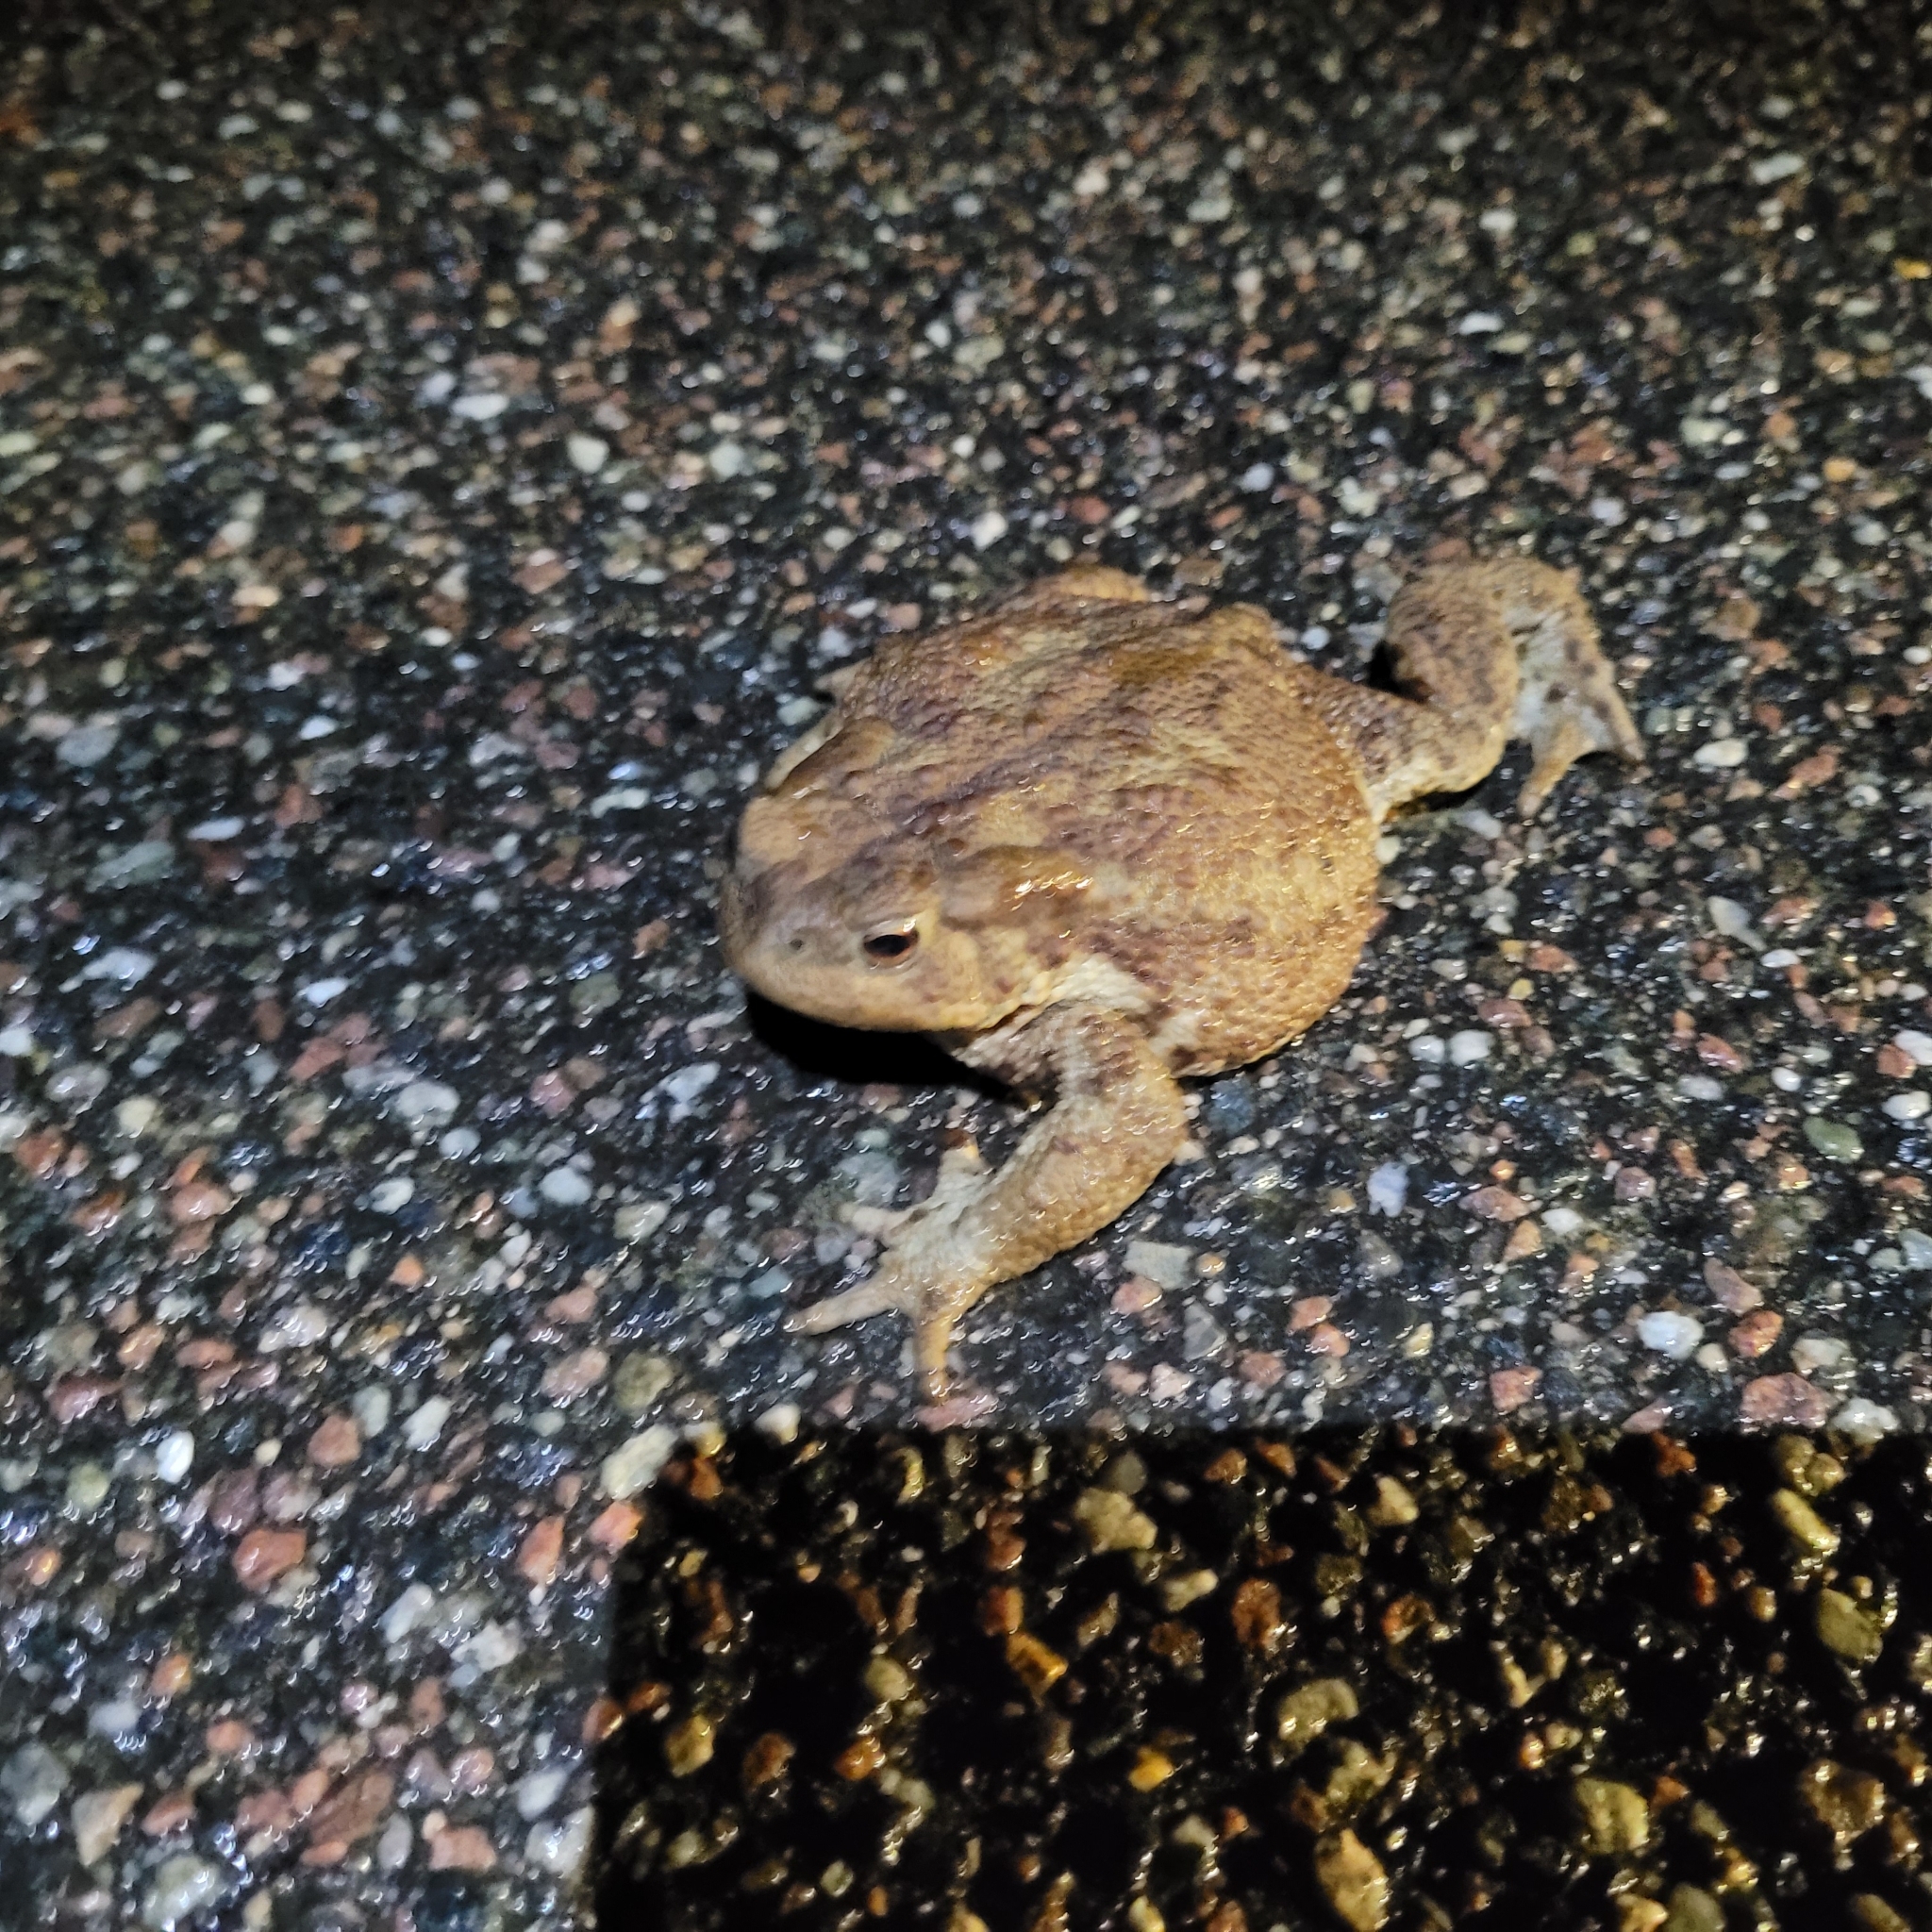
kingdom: Animalia
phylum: Chordata
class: Amphibia
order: Anura
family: Bufonidae
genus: Bufo
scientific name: Bufo bufo
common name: Common toad
